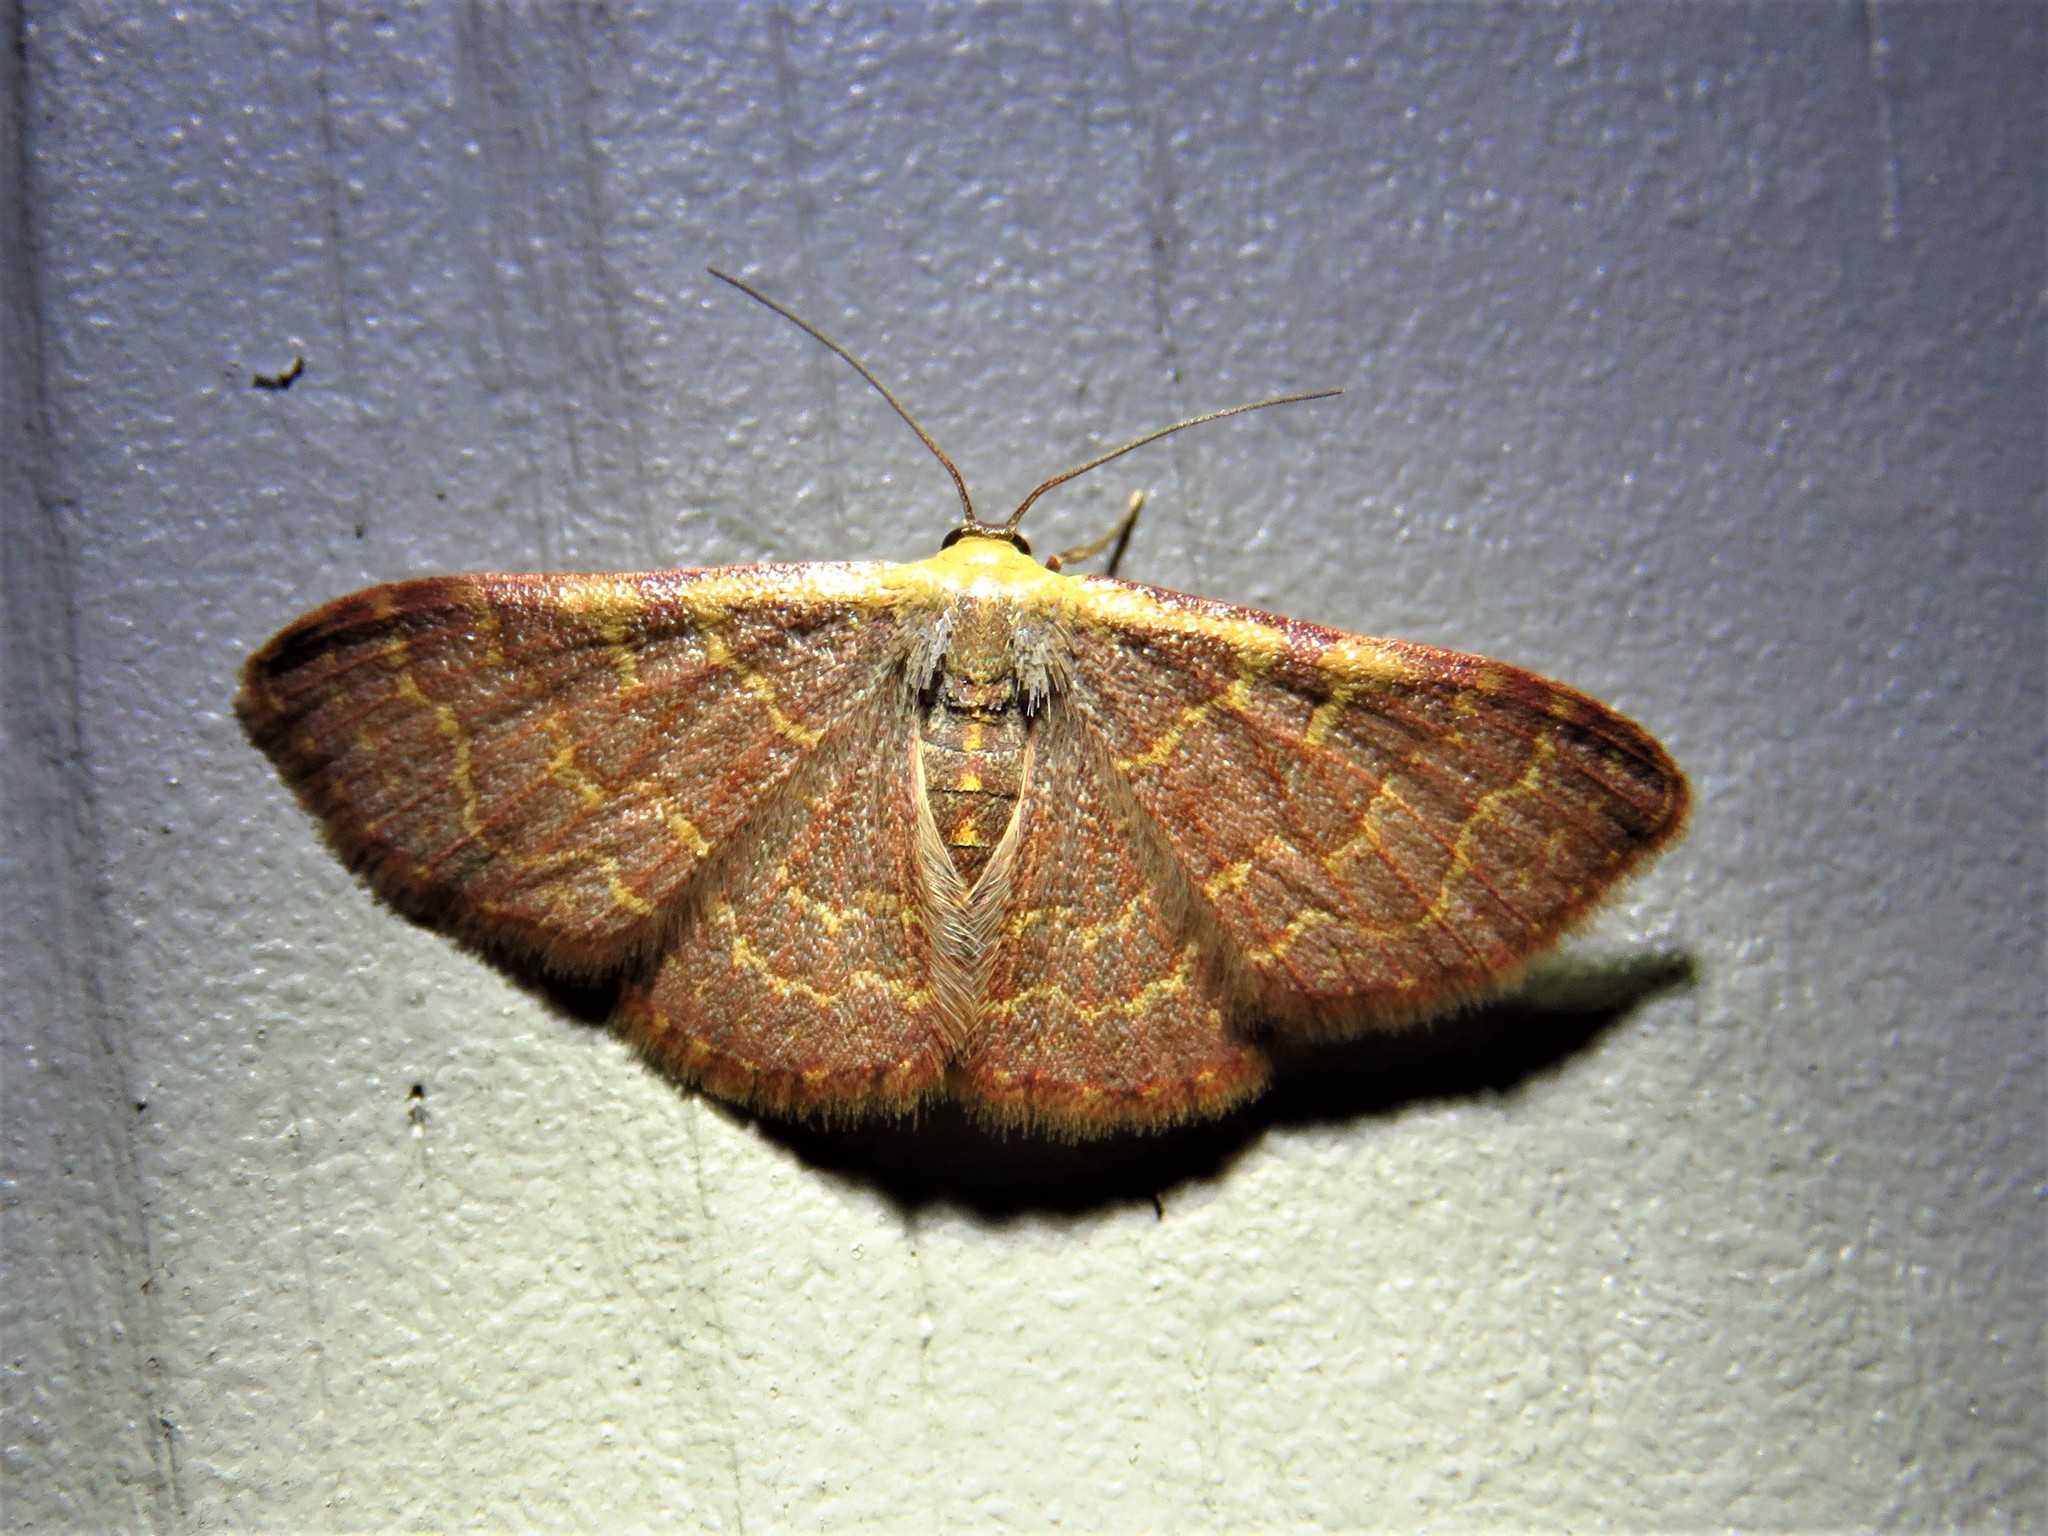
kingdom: Animalia
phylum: Arthropoda
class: Insecta
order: Lepidoptera
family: Geometridae
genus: Leptostales
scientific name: Leptostales pannaria
